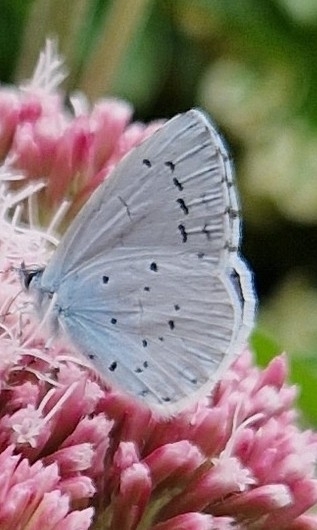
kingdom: Animalia
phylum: Arthropoda
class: Insecta
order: Lepidoptera
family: Lycaenidae
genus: Celastrina
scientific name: Celastrina argiolus
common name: Holly blue
